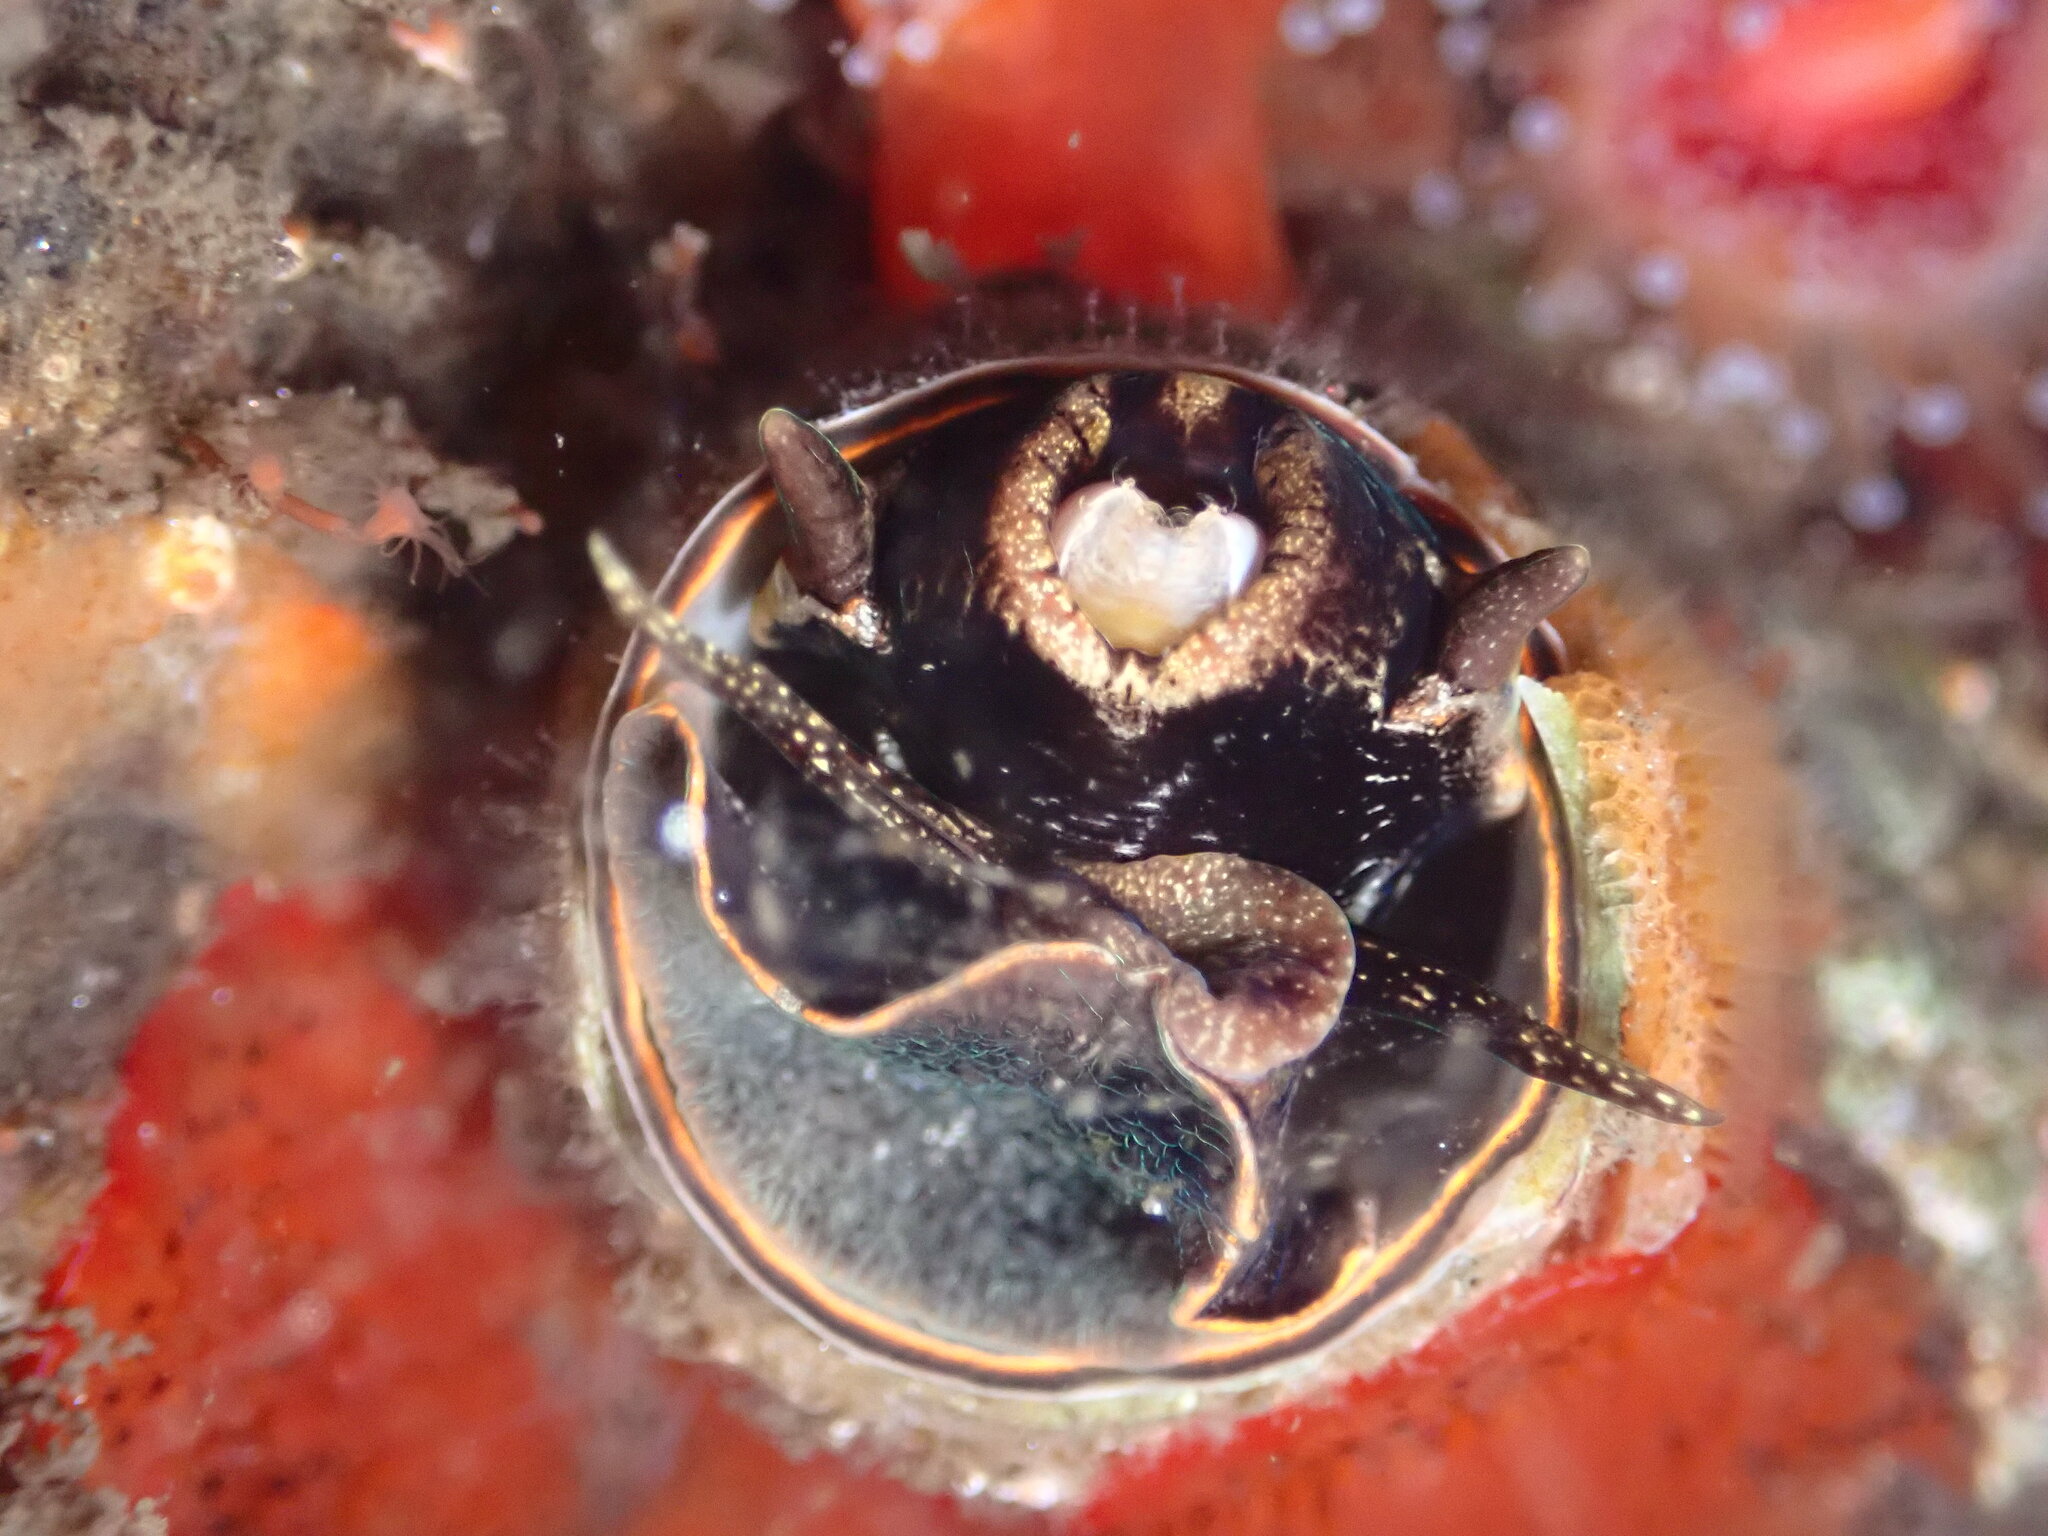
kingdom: Animalia
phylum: Mollusca
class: Gastropoda
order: Littorinimorpha
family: Vermetidae
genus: Thylacodes
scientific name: Thylacodes squamigerus
